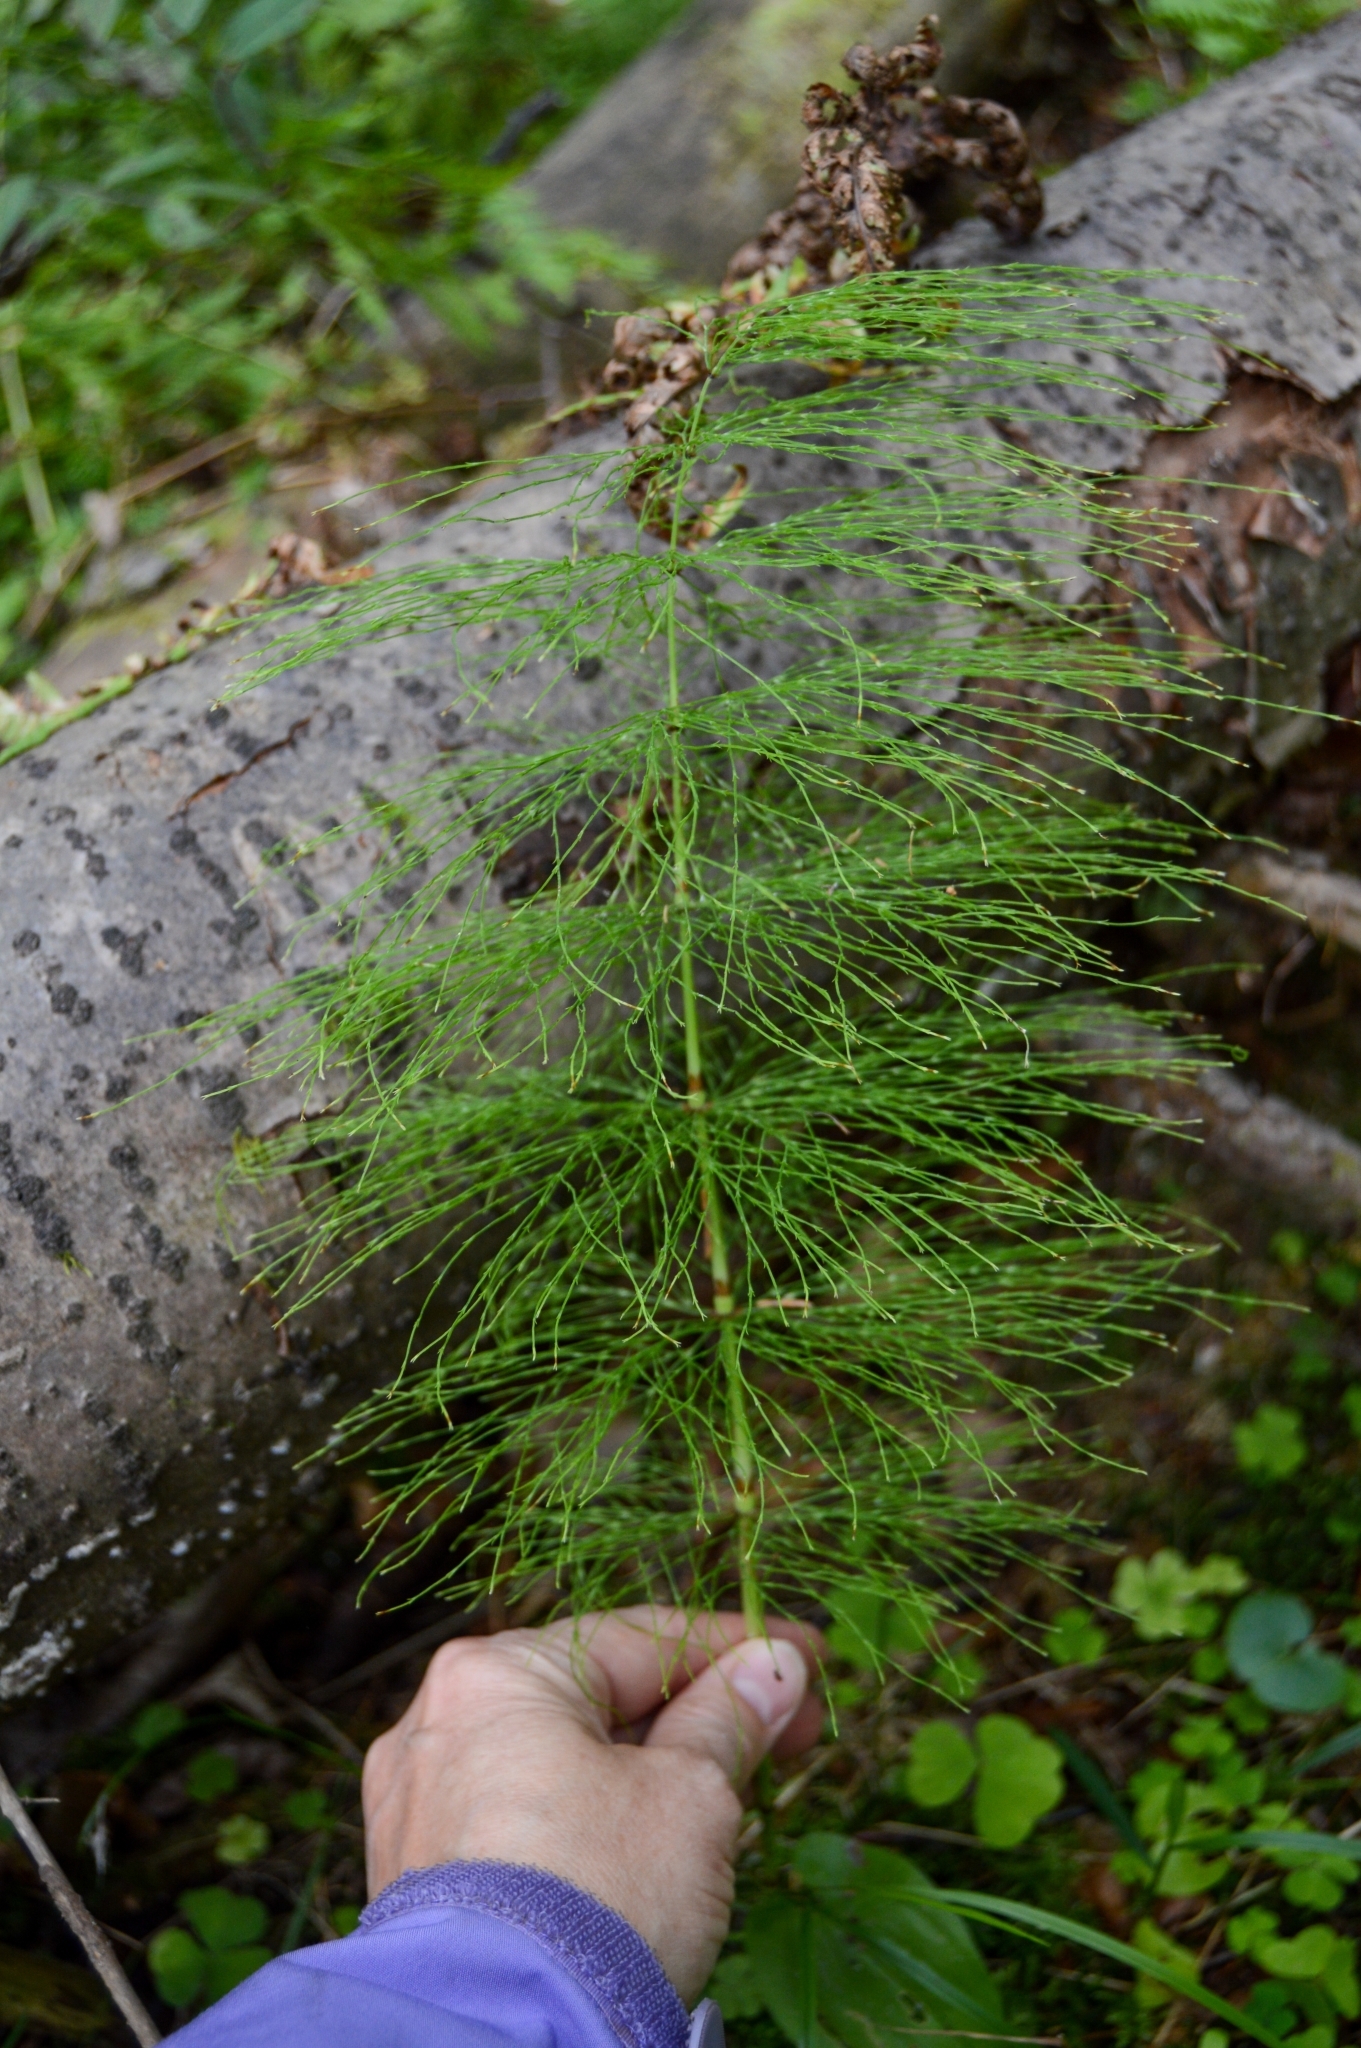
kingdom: Plantae
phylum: Tracheophyta
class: Polypodiopsida
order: Equisetales
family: Equisetaceae
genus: Equisetum
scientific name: Equisetum sylvaticum
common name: Wood horsetail
